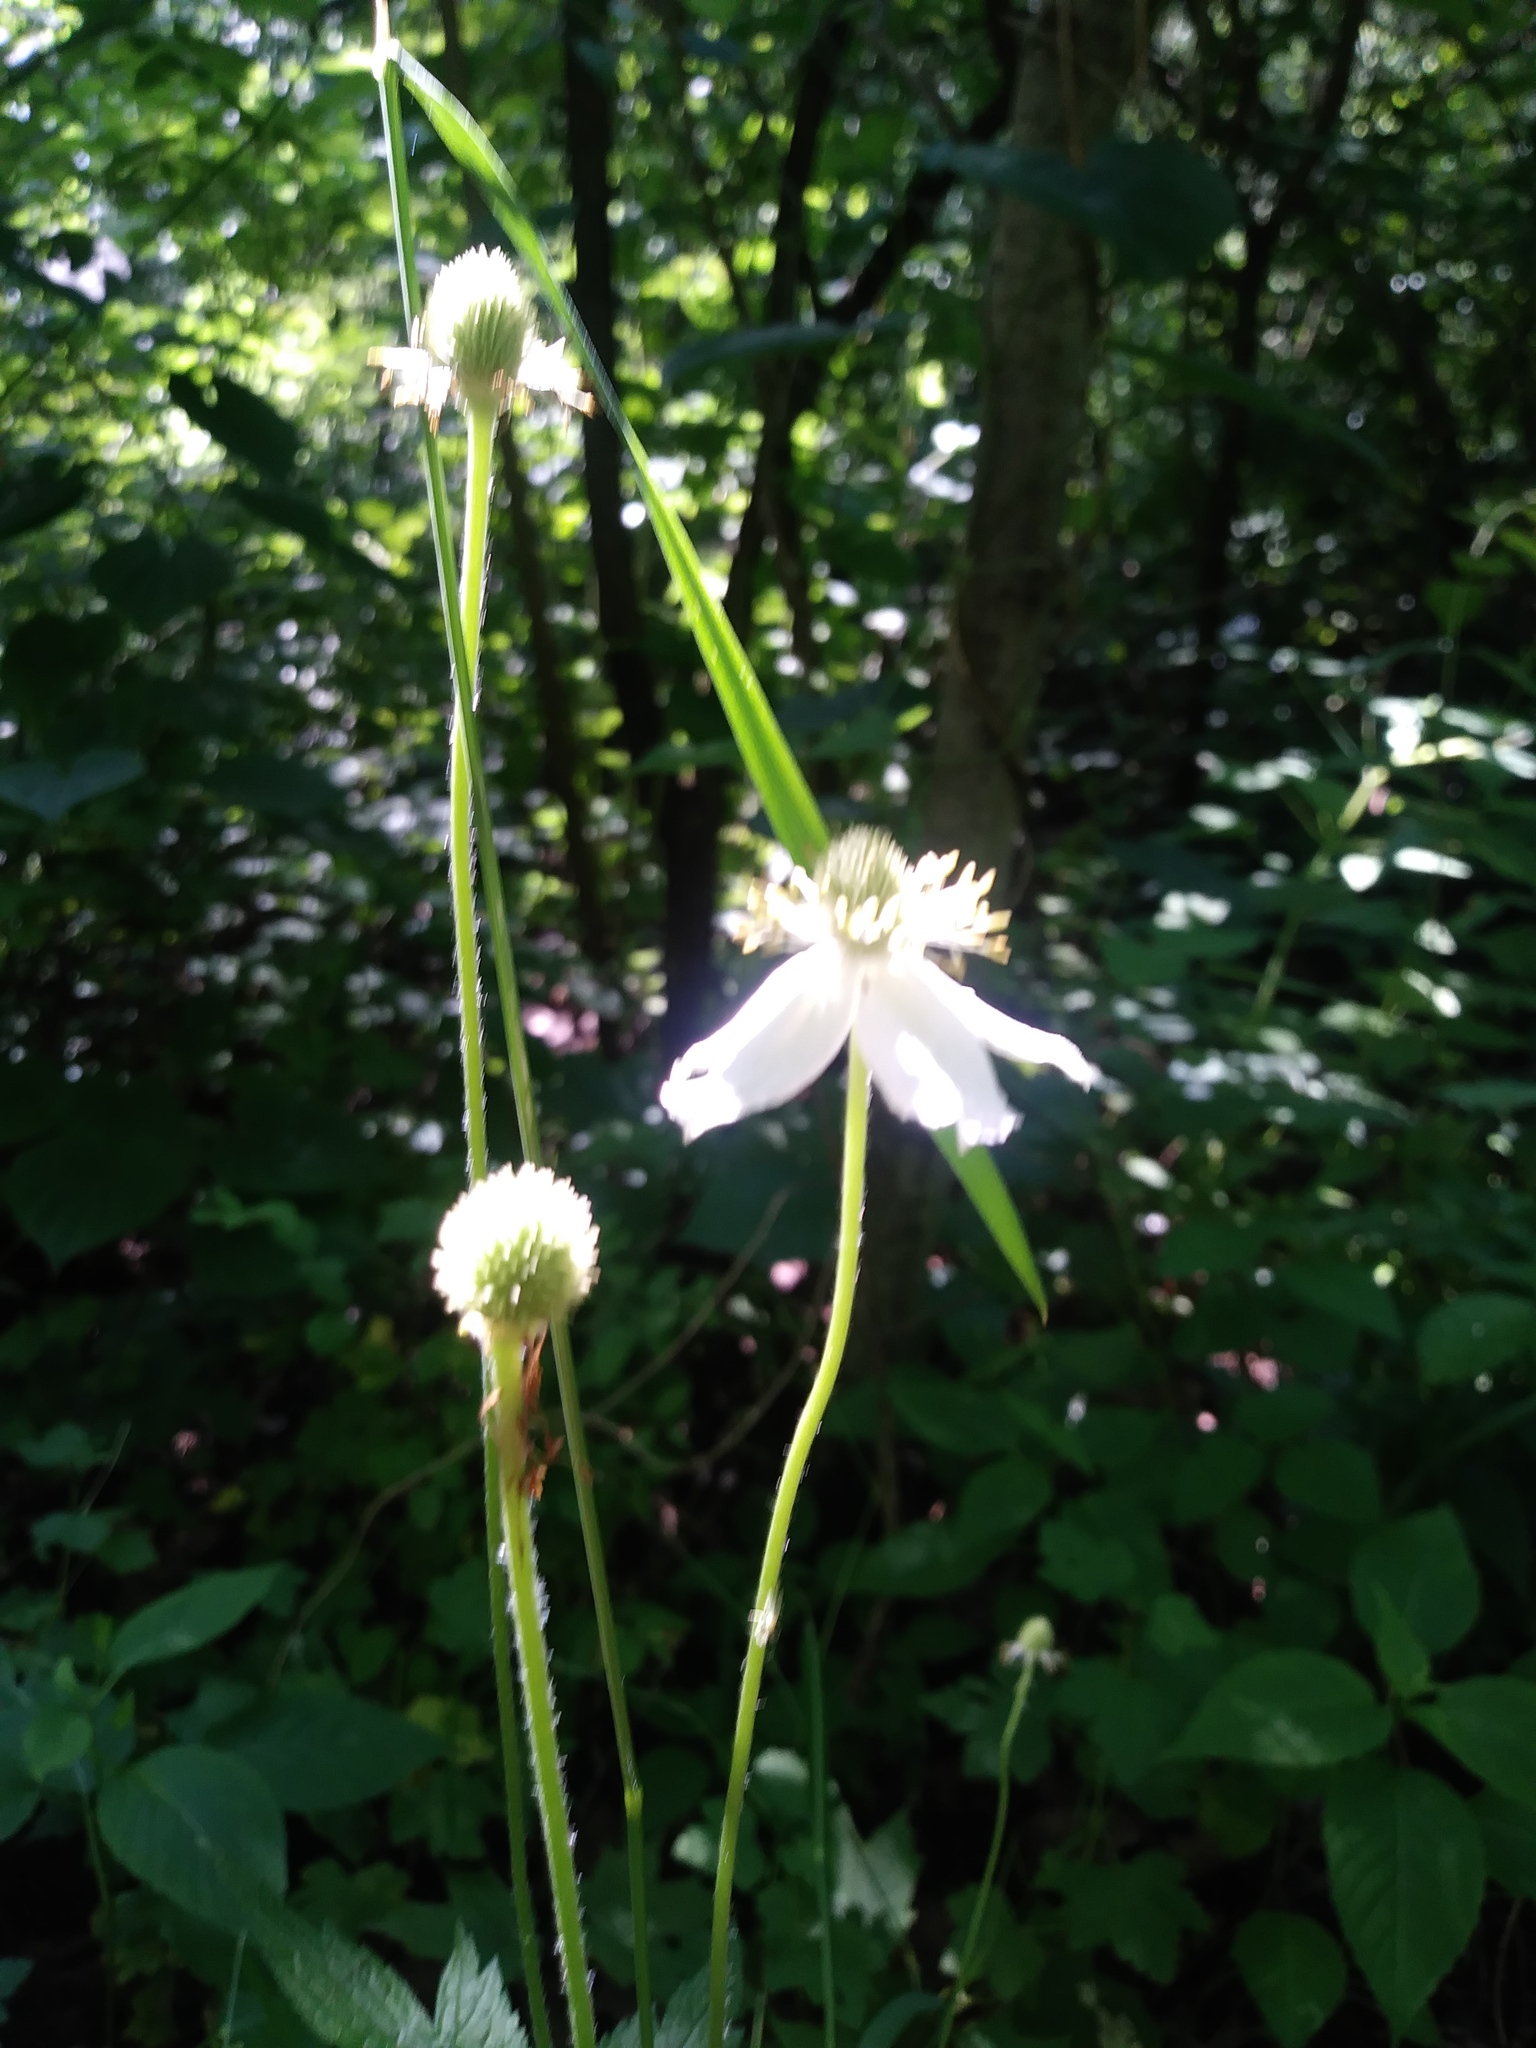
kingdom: Plantae
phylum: Tracheophyta
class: Magnoliopsida
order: Ranunculales
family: Ranunculaceae
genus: Anemone
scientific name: Anemone virginiana
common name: Tall anemone
